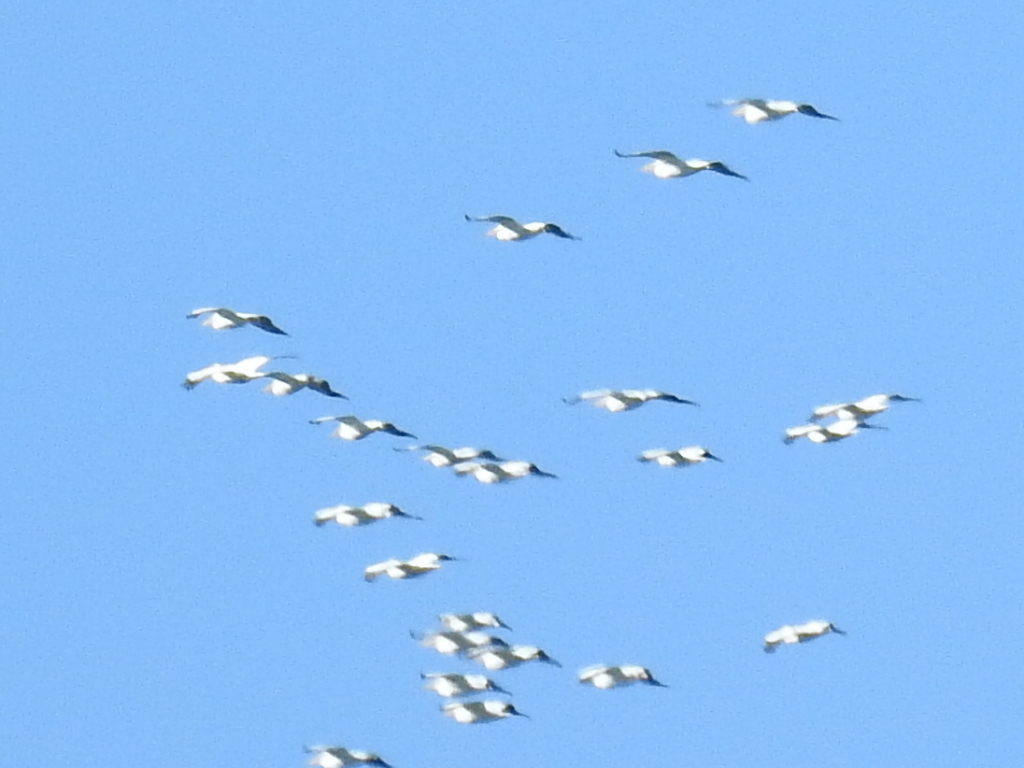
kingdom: Animalia
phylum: Chordata
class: Aves
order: Pelecaniformes
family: Pelecanidae
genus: Pelecanus
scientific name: Pelecanus erythrorhynchos
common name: American white pelican
